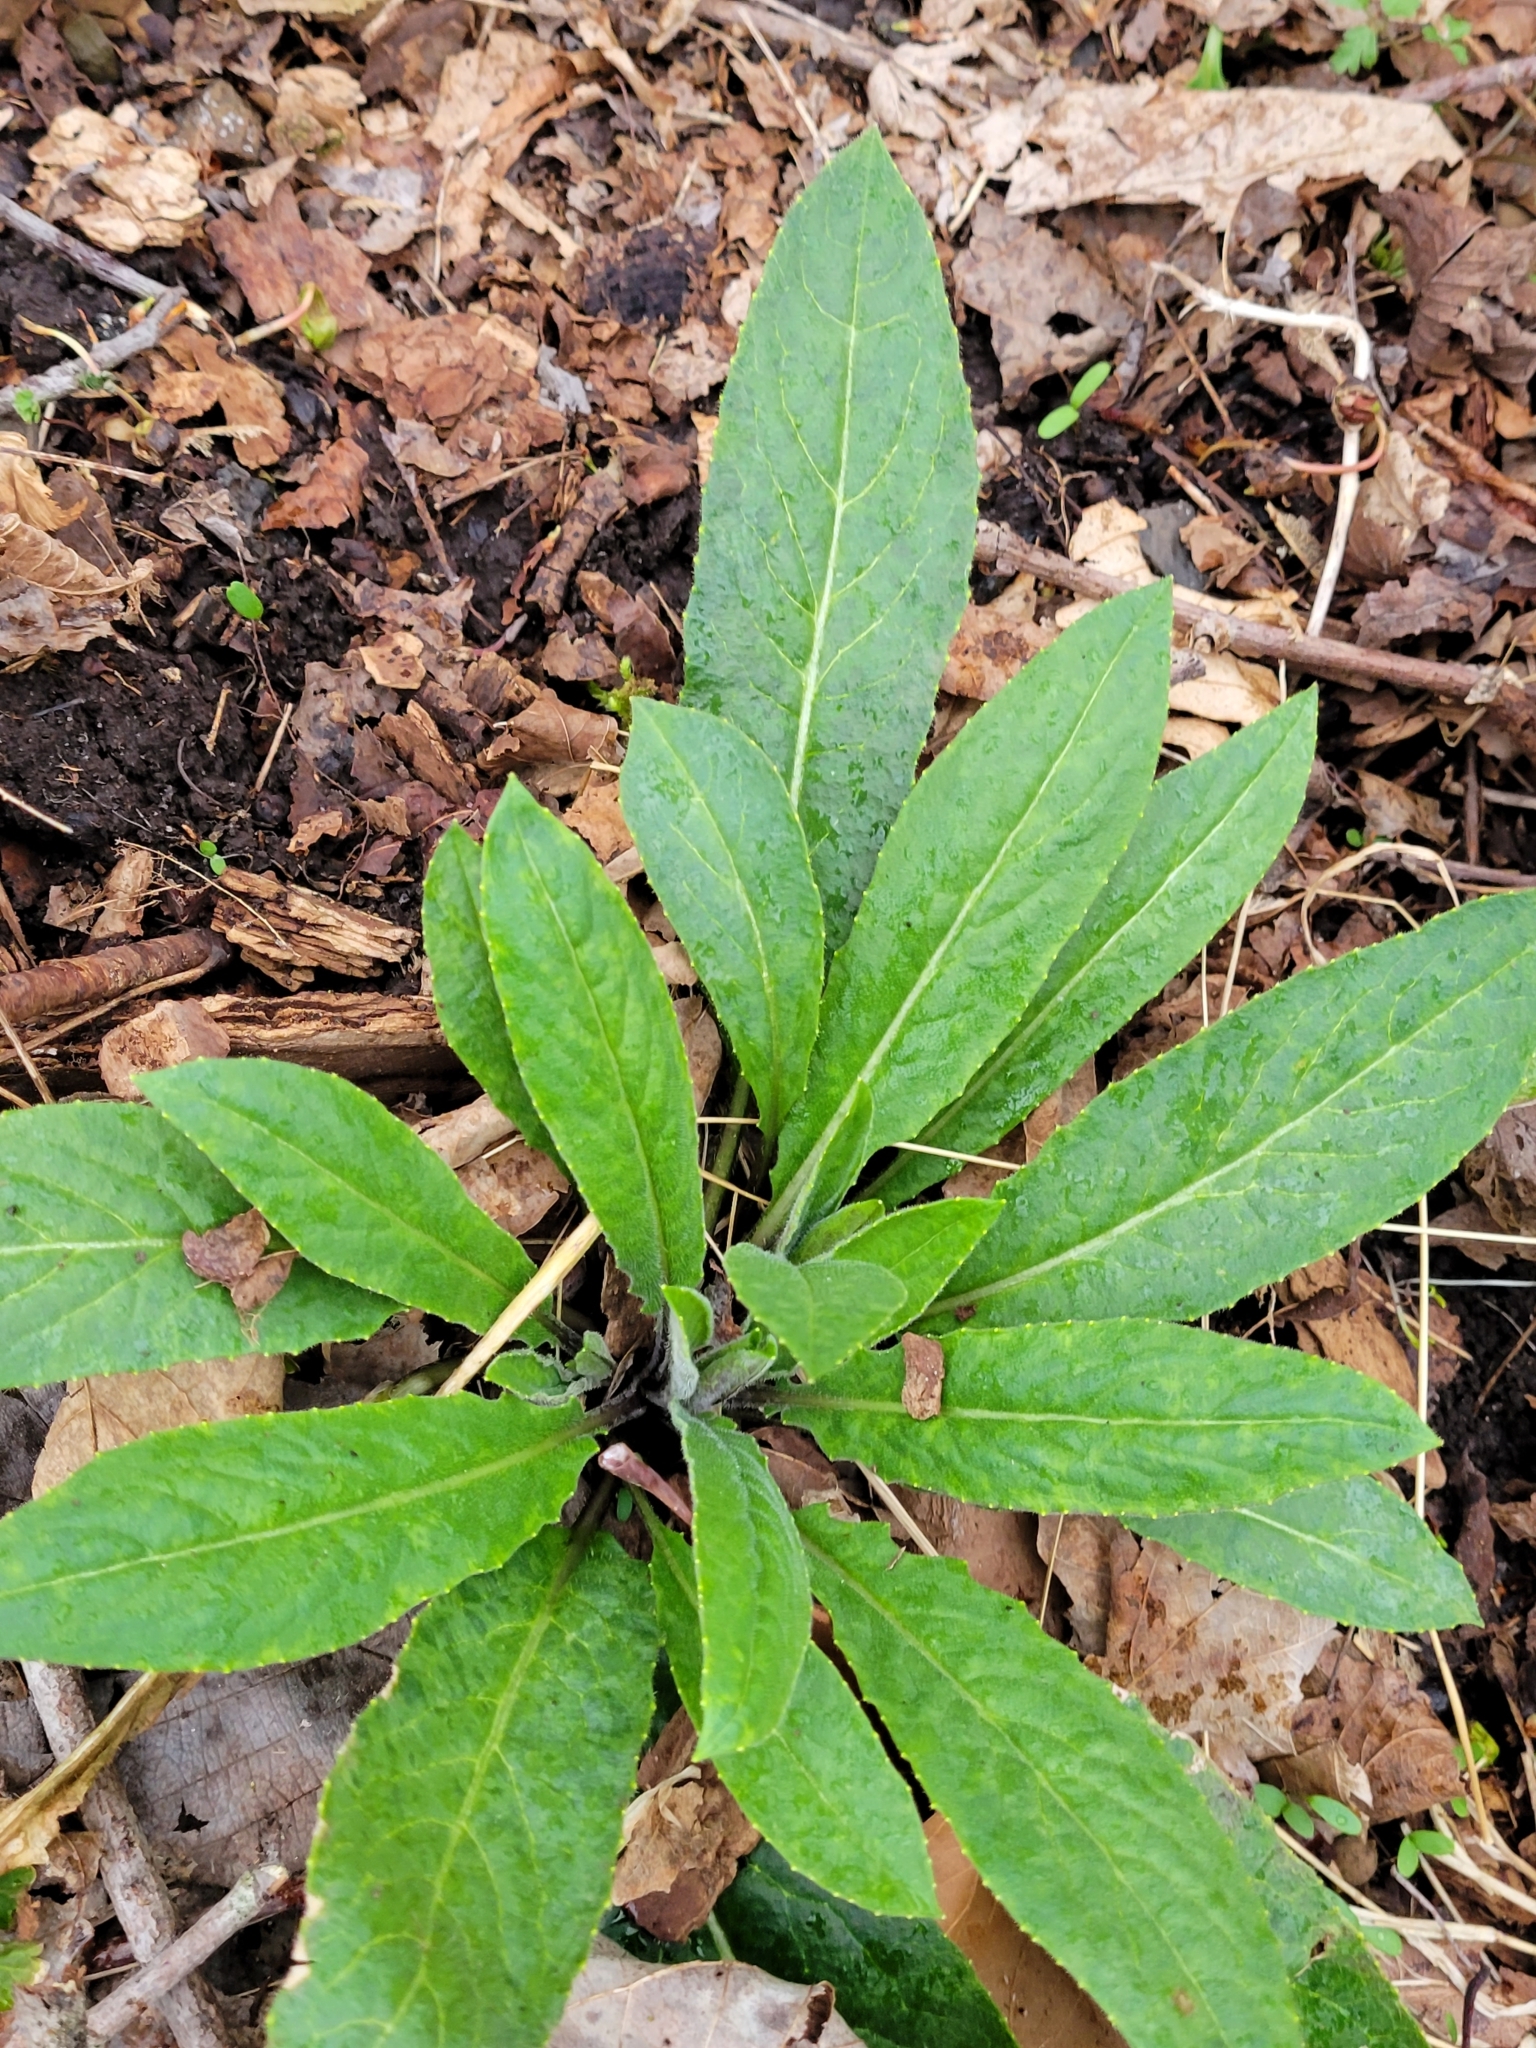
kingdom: Plantae
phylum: Tracheophyta
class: Magnoliopsida
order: Brassicales
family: Brassicaceae
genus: Hesperis
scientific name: Hesperis matronalis
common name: Dame's-violet
